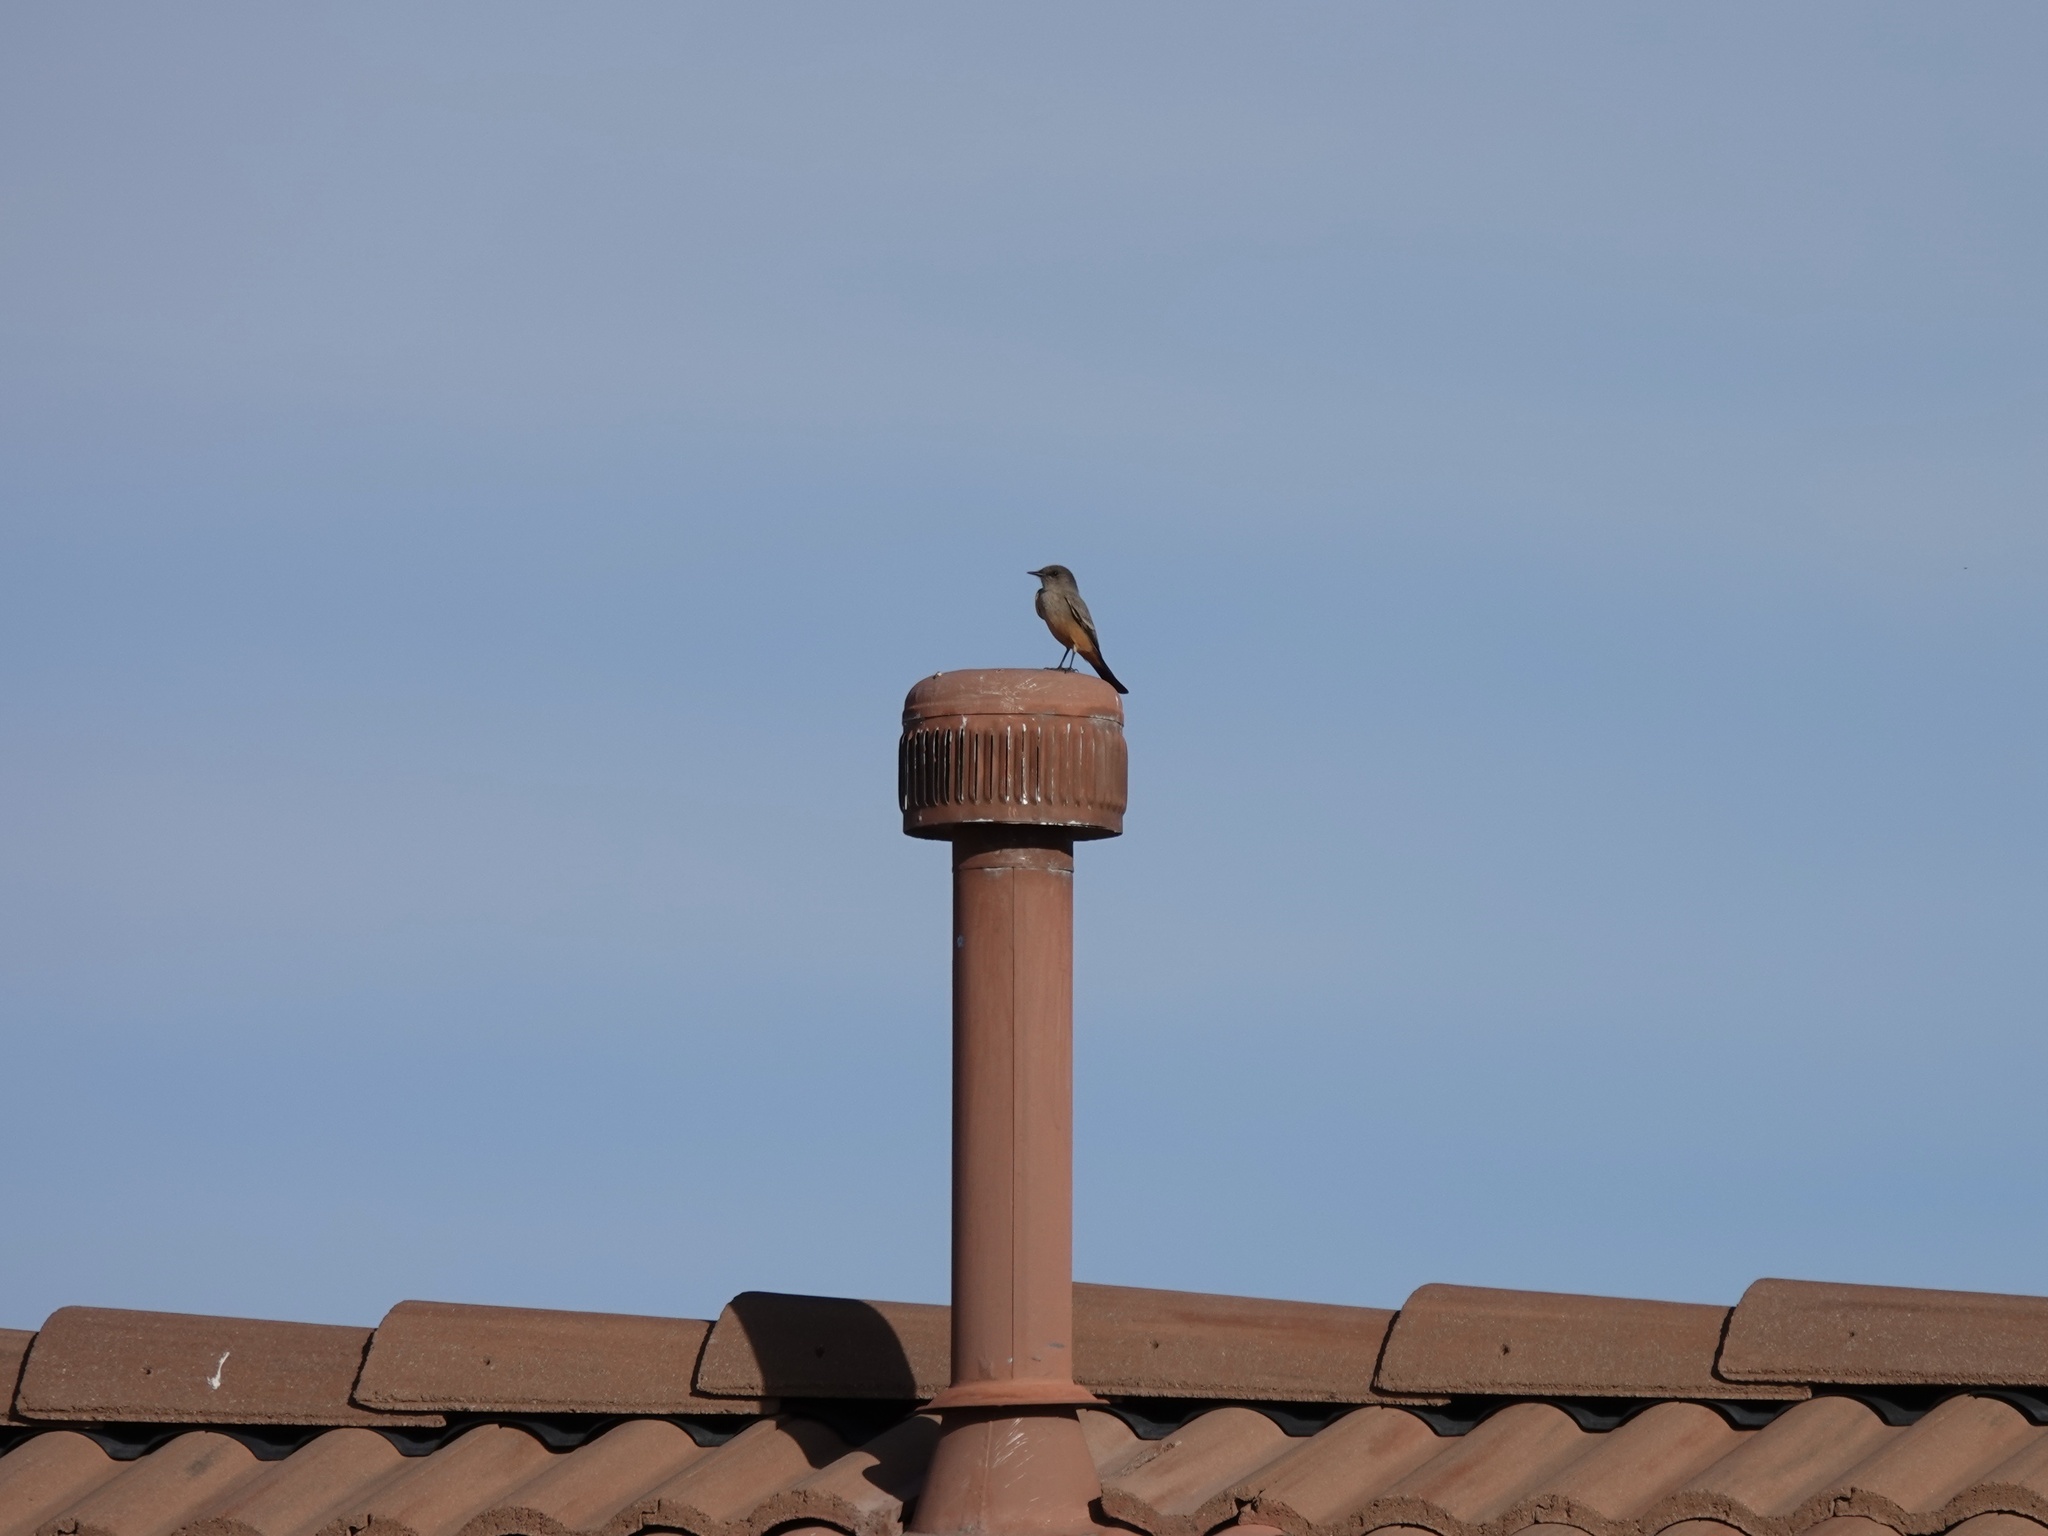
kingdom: Animalia
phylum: Chordata
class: Aves
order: Passeriformes
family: Tyrannidae
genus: Sayornis
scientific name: Sayornis saya
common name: Say's phoebe
